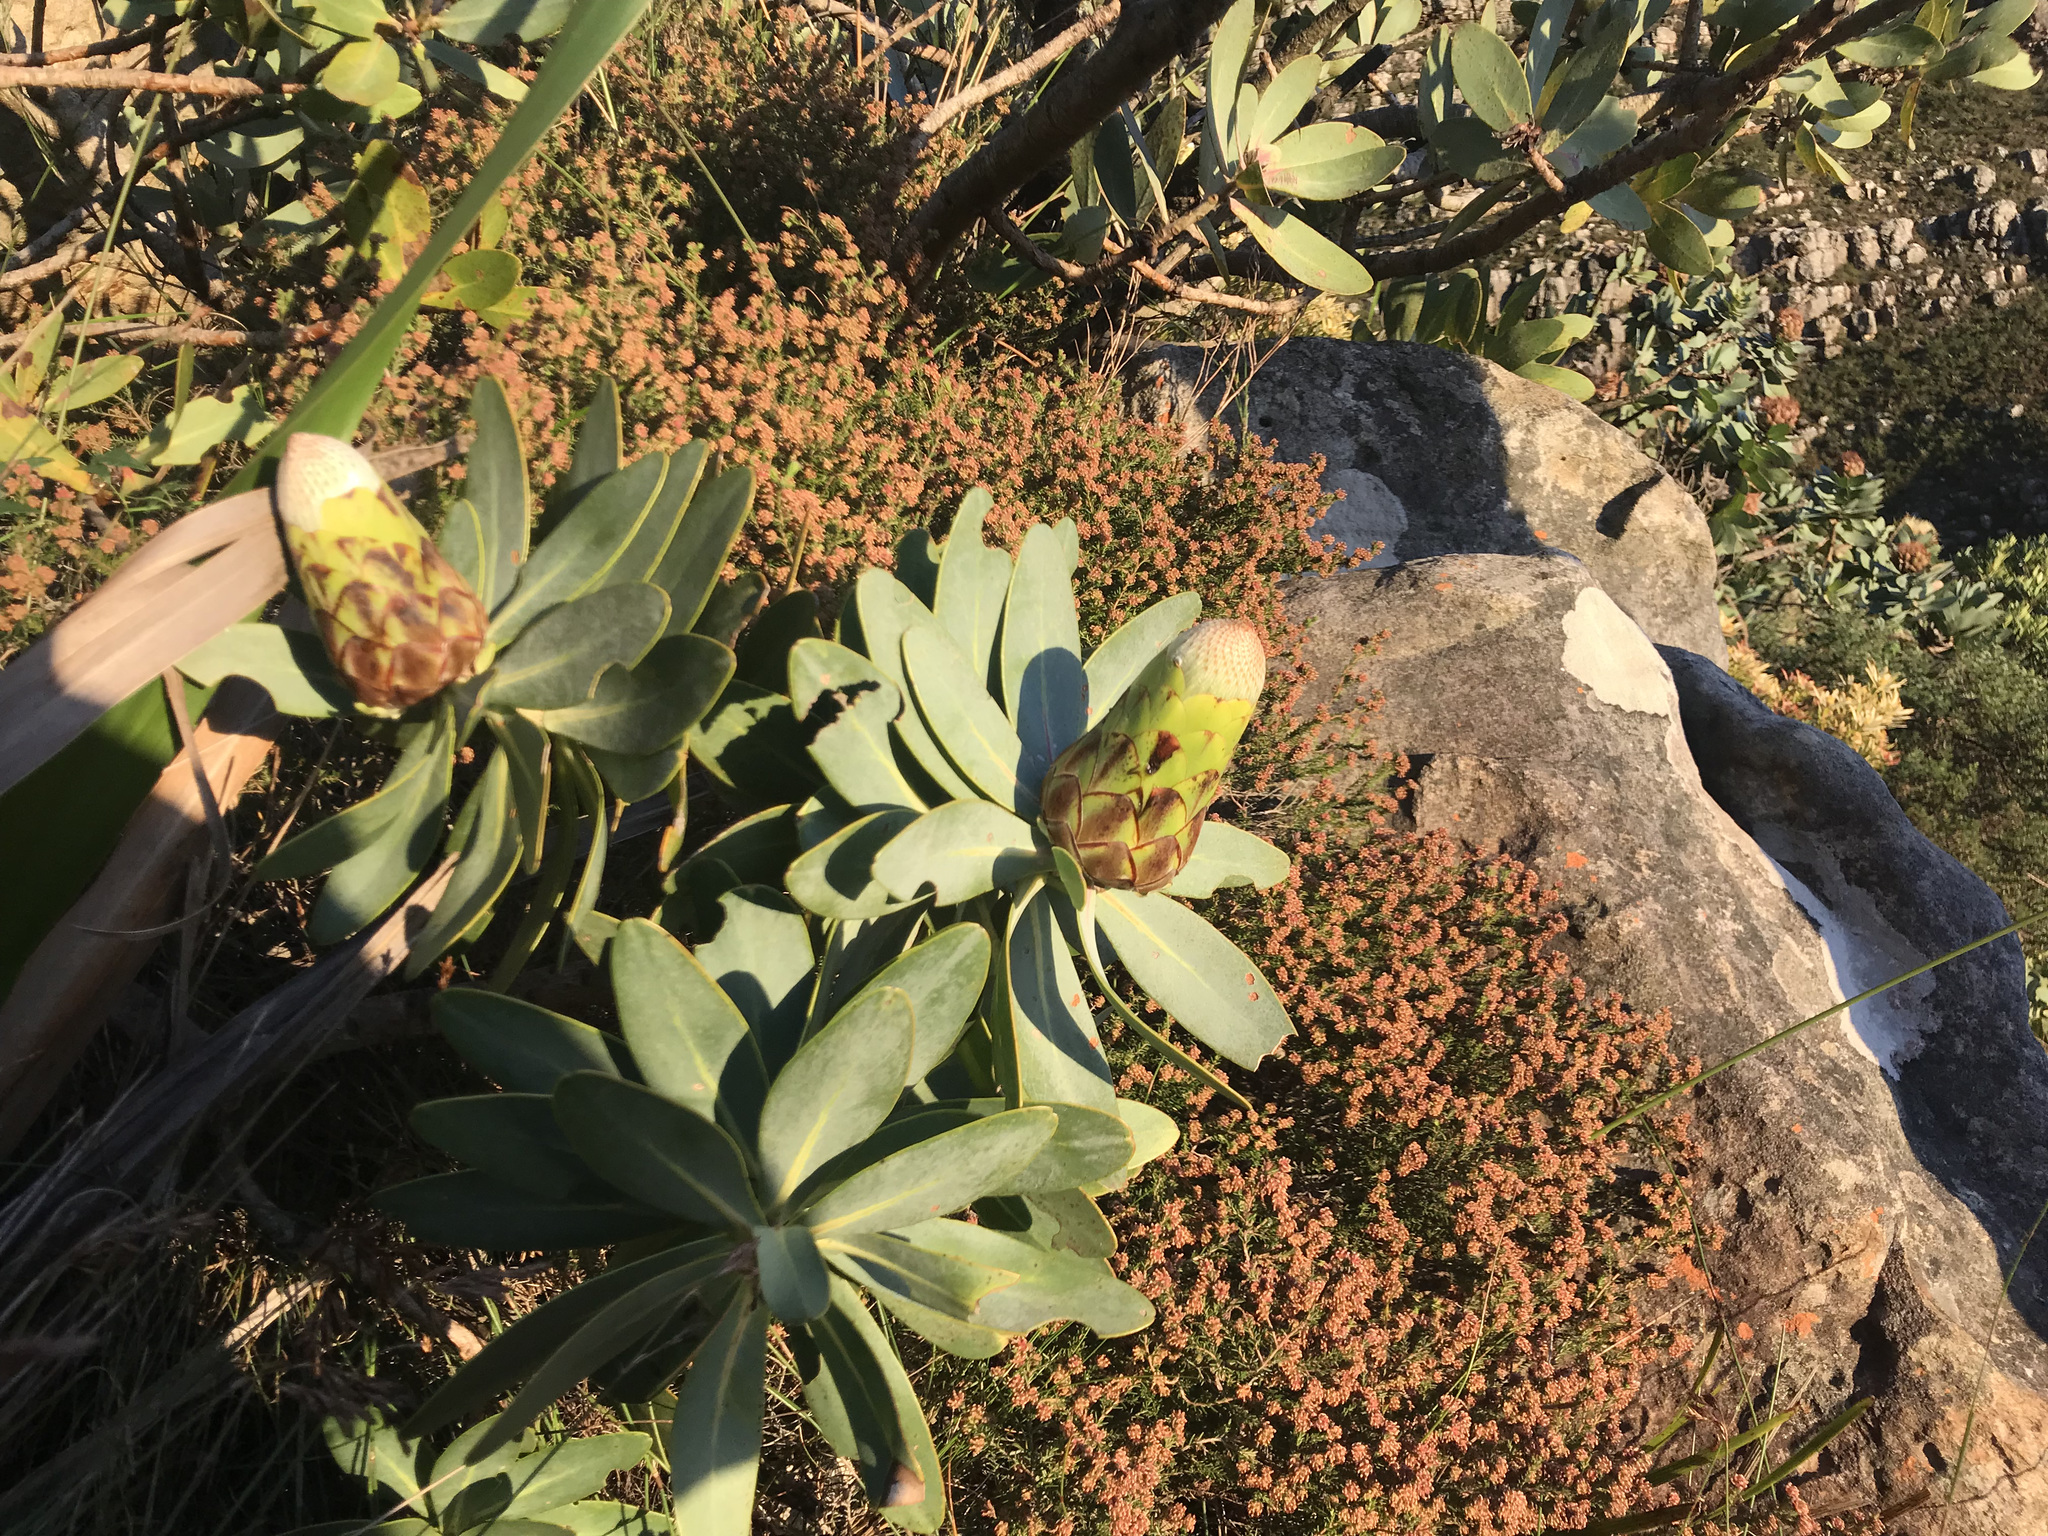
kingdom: Plantae
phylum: Tracheophyta
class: Magnoliopsida
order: Proteales
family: Proteaceae
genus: Protea
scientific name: Protea nitida
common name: Tree protea
